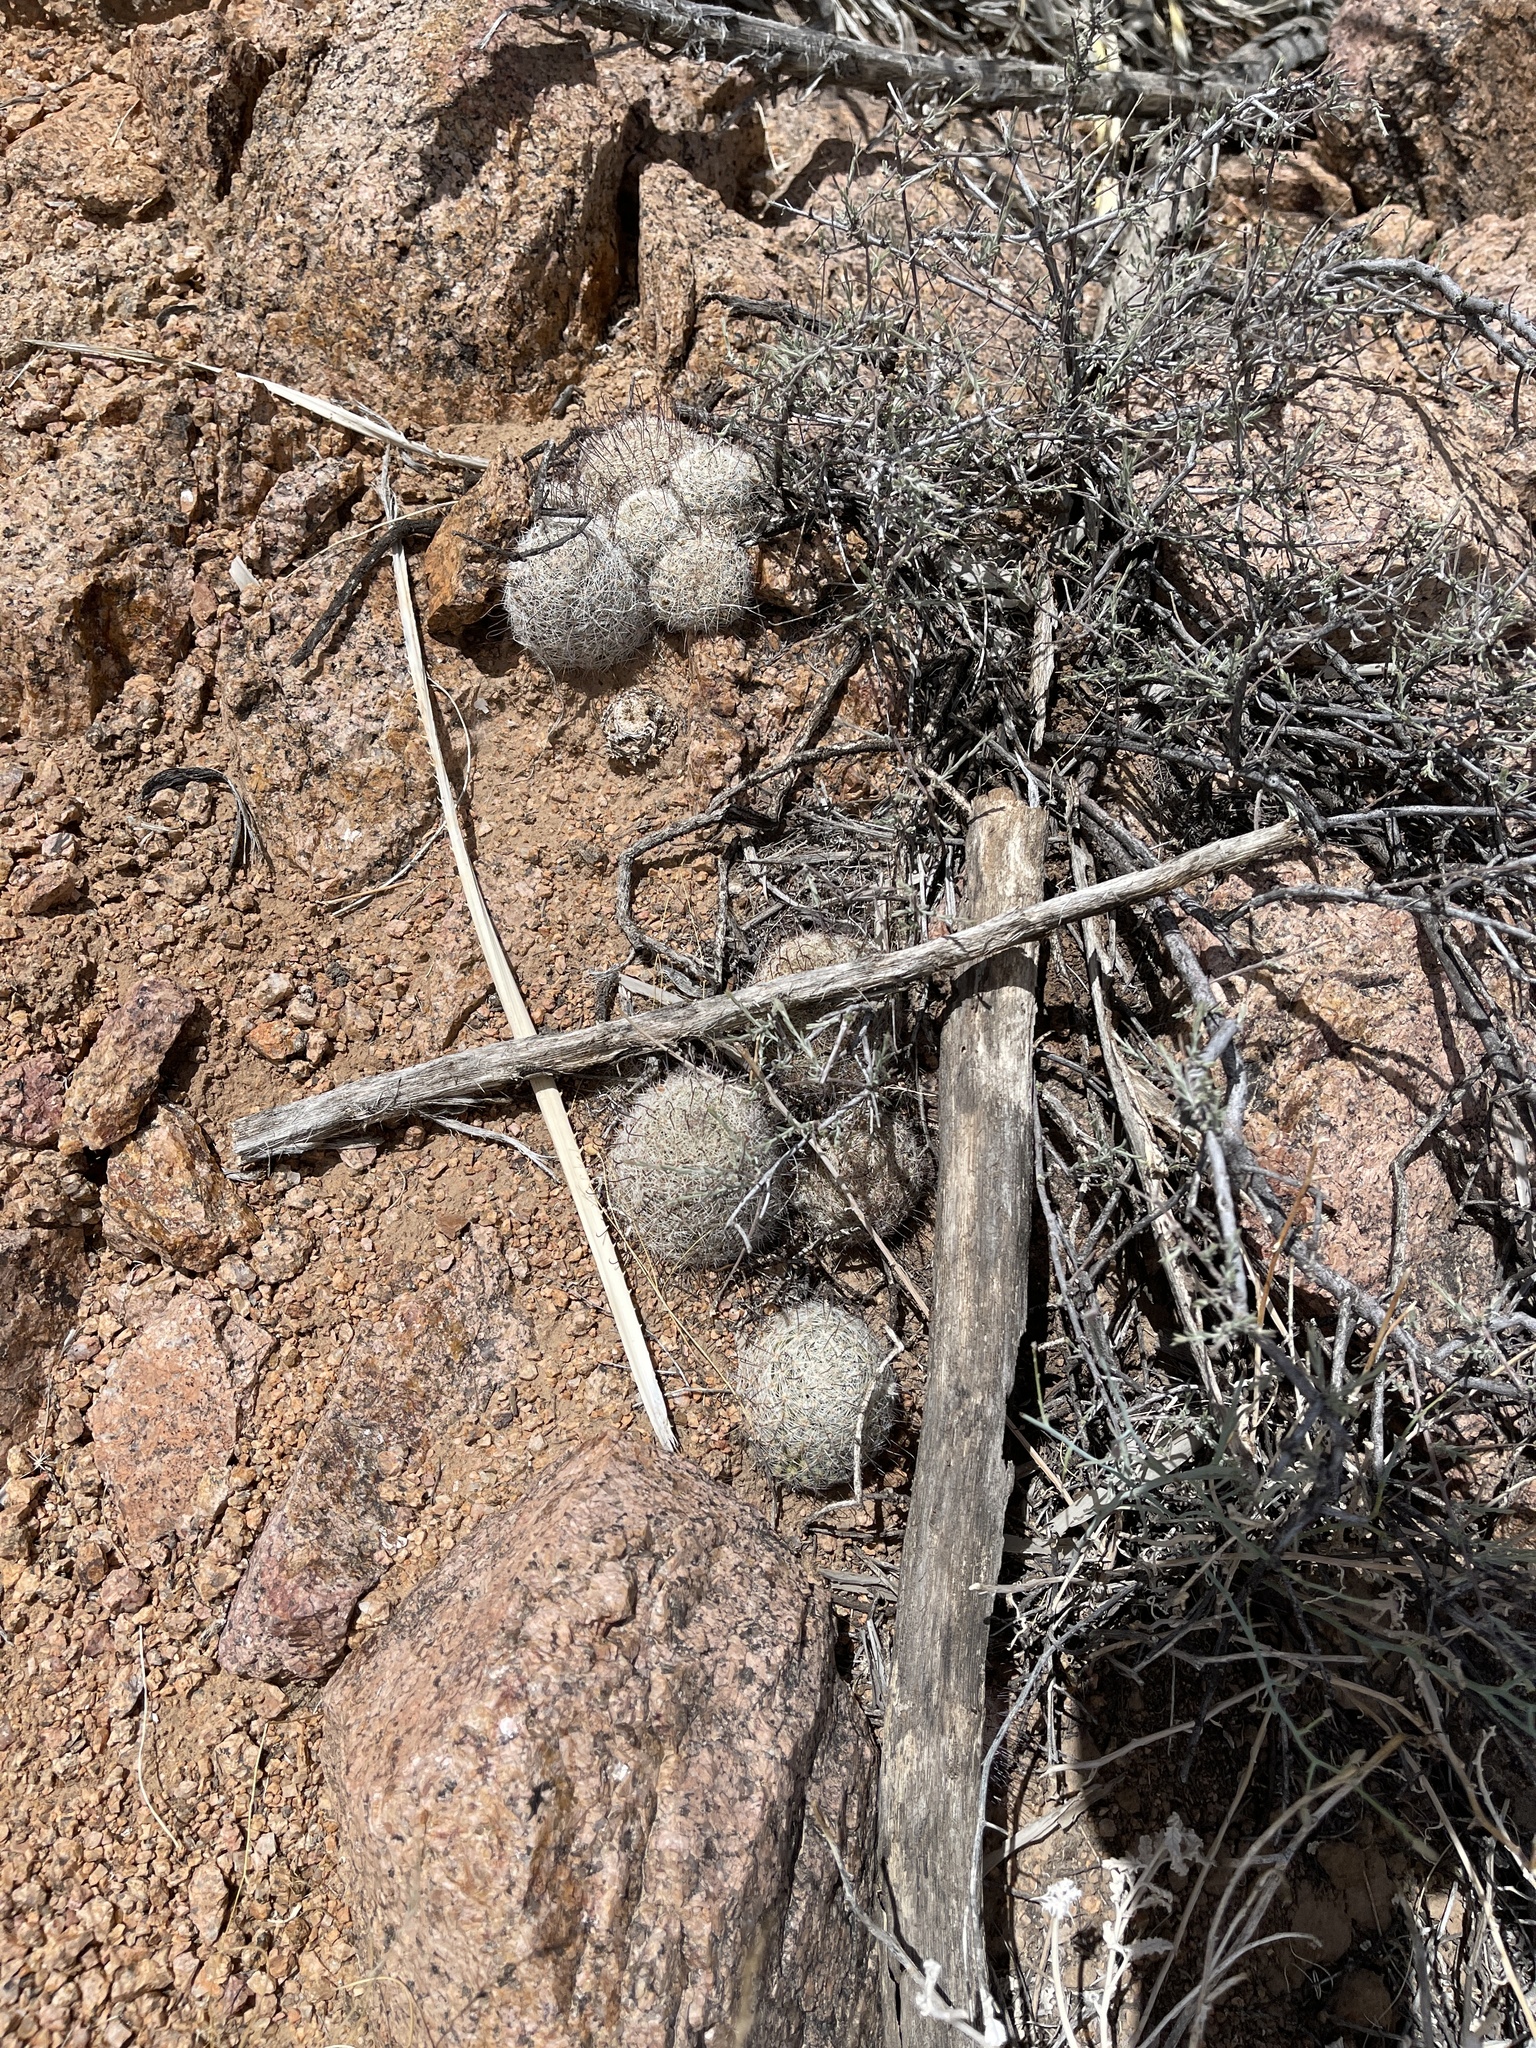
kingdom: Plantae
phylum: Tracheophyta
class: Magnoliopsida
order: Caryophyllales
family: Cactaceae
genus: Cochemiea
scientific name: Cochemiea grahamii
